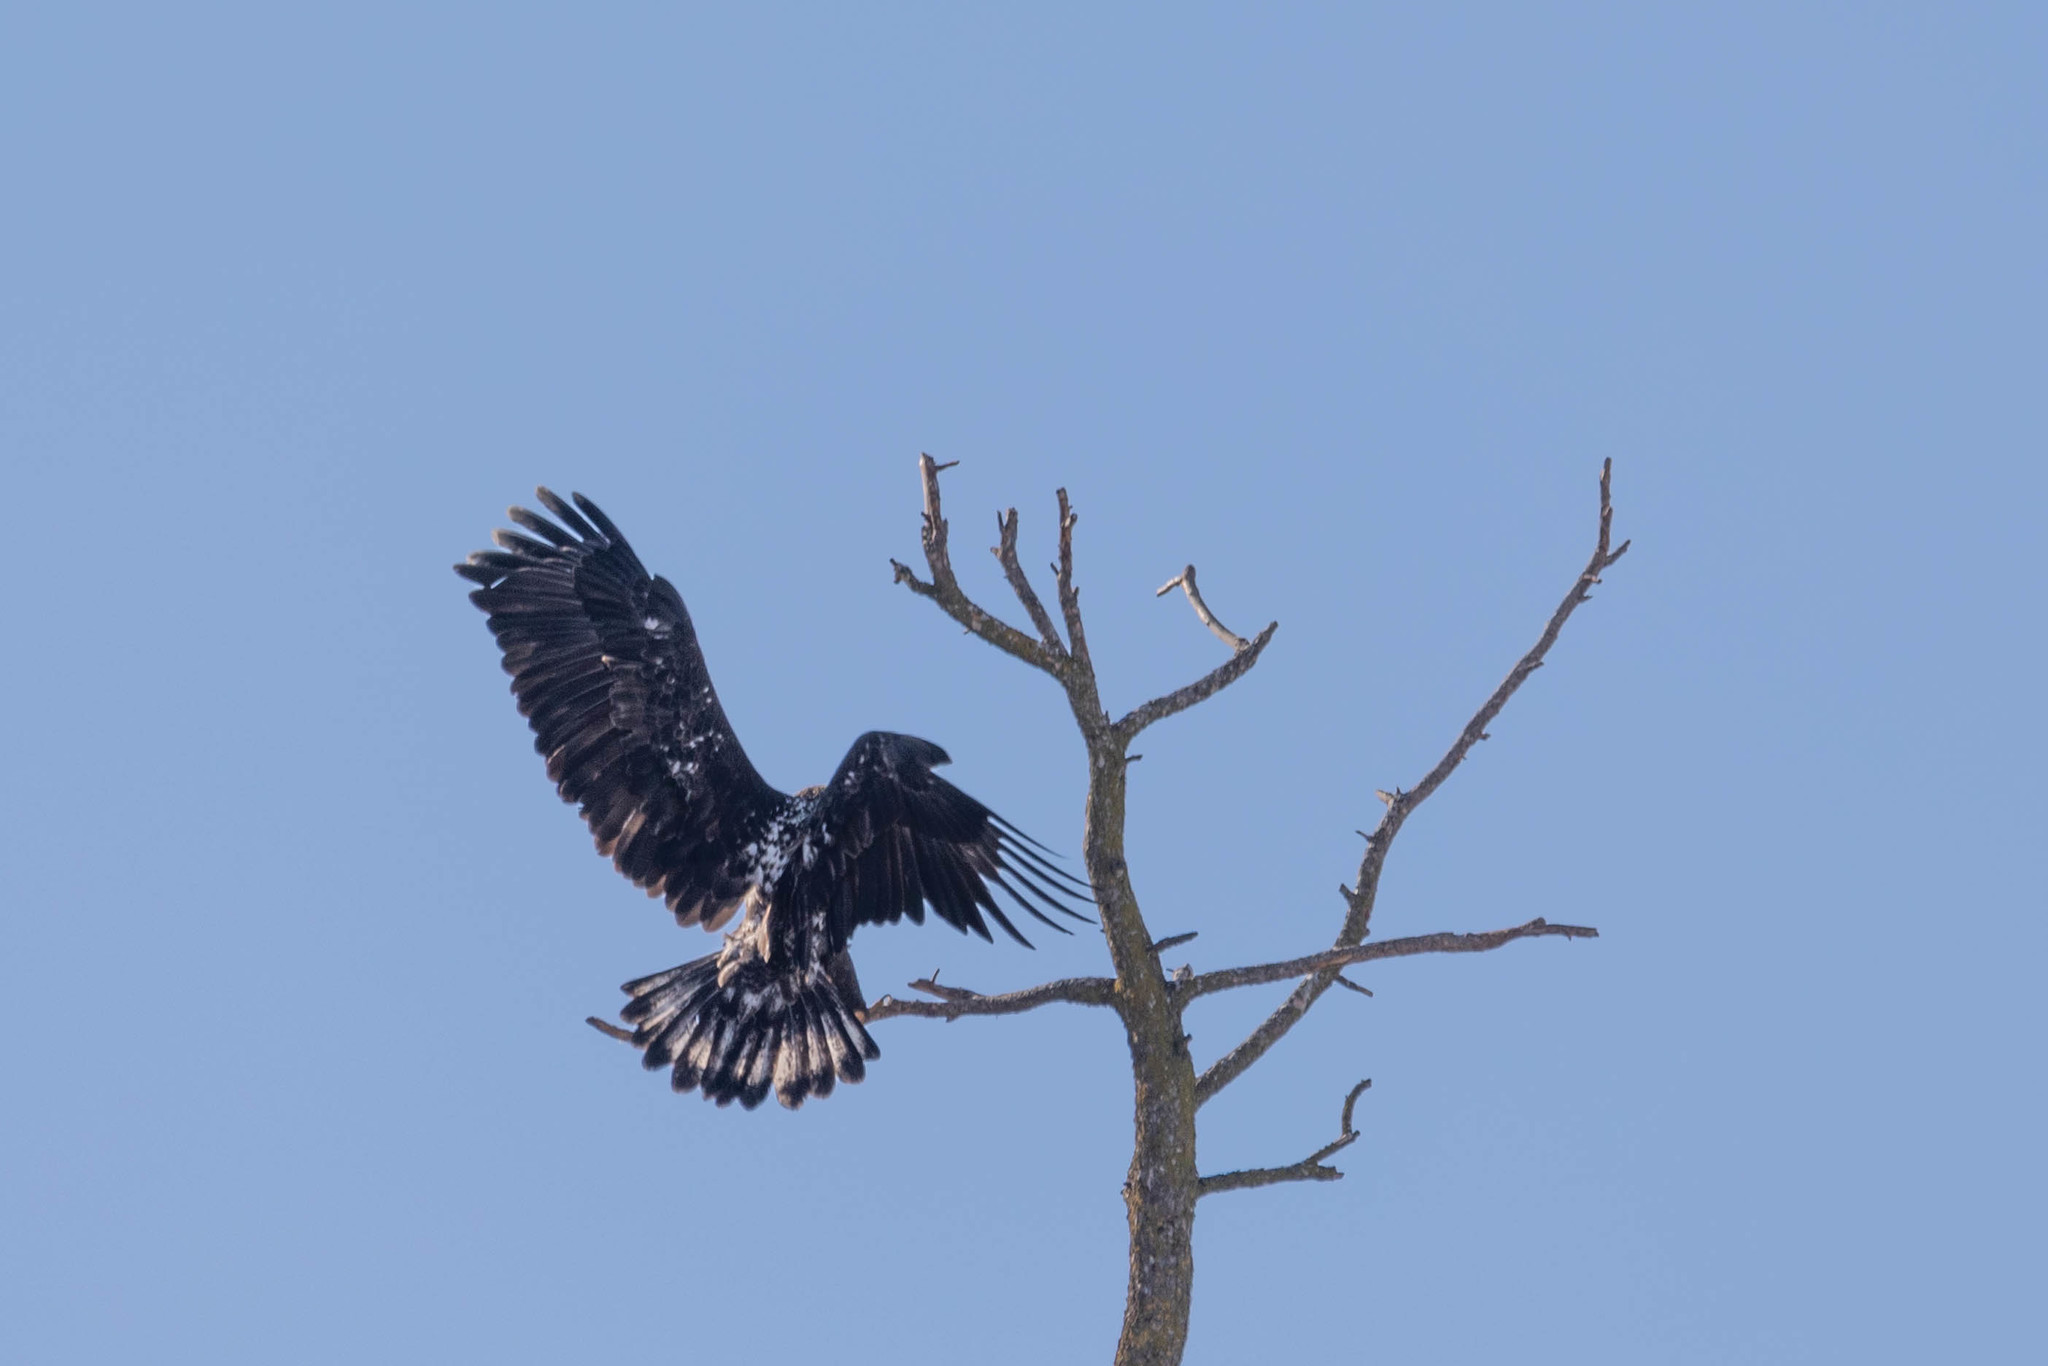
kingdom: Animalia
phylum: Chordata
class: Aves
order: Accipitriformes
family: Accipitridae
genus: Haliaeetus
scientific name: Haliaeetus leucocephalus
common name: Bald eagle
